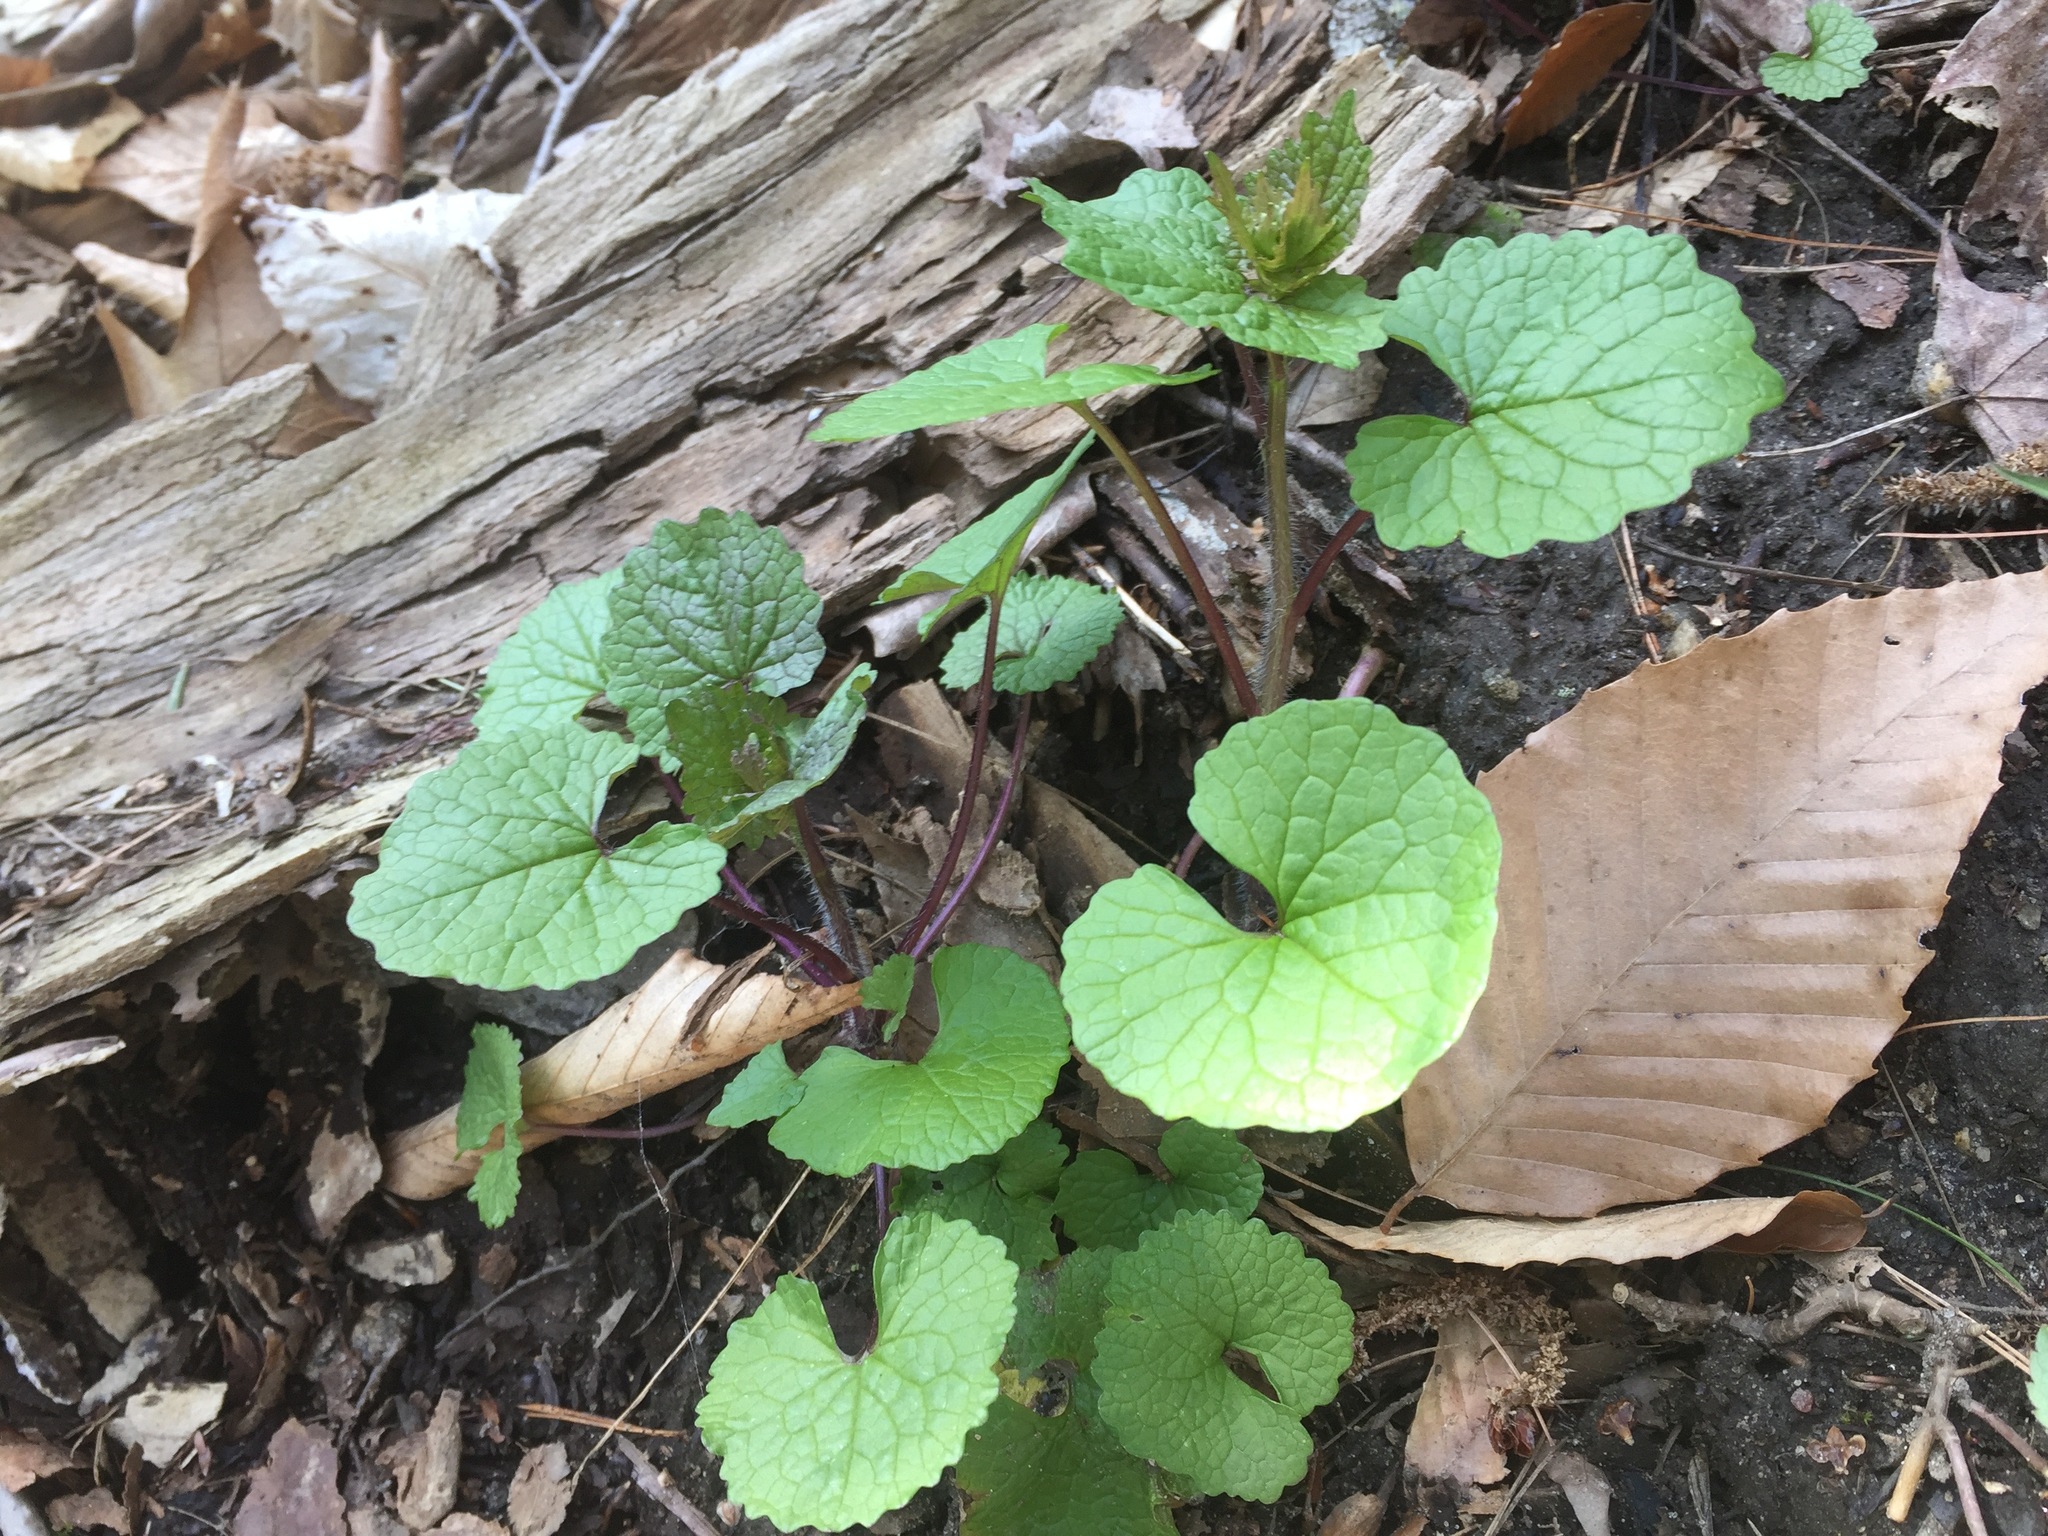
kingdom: Plantae
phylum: Tracheophyta
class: Magnoliopsida
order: Brassicales
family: Brassicaceae
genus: Alliaria
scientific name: Alliaria petiolata
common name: Garlic mustard
